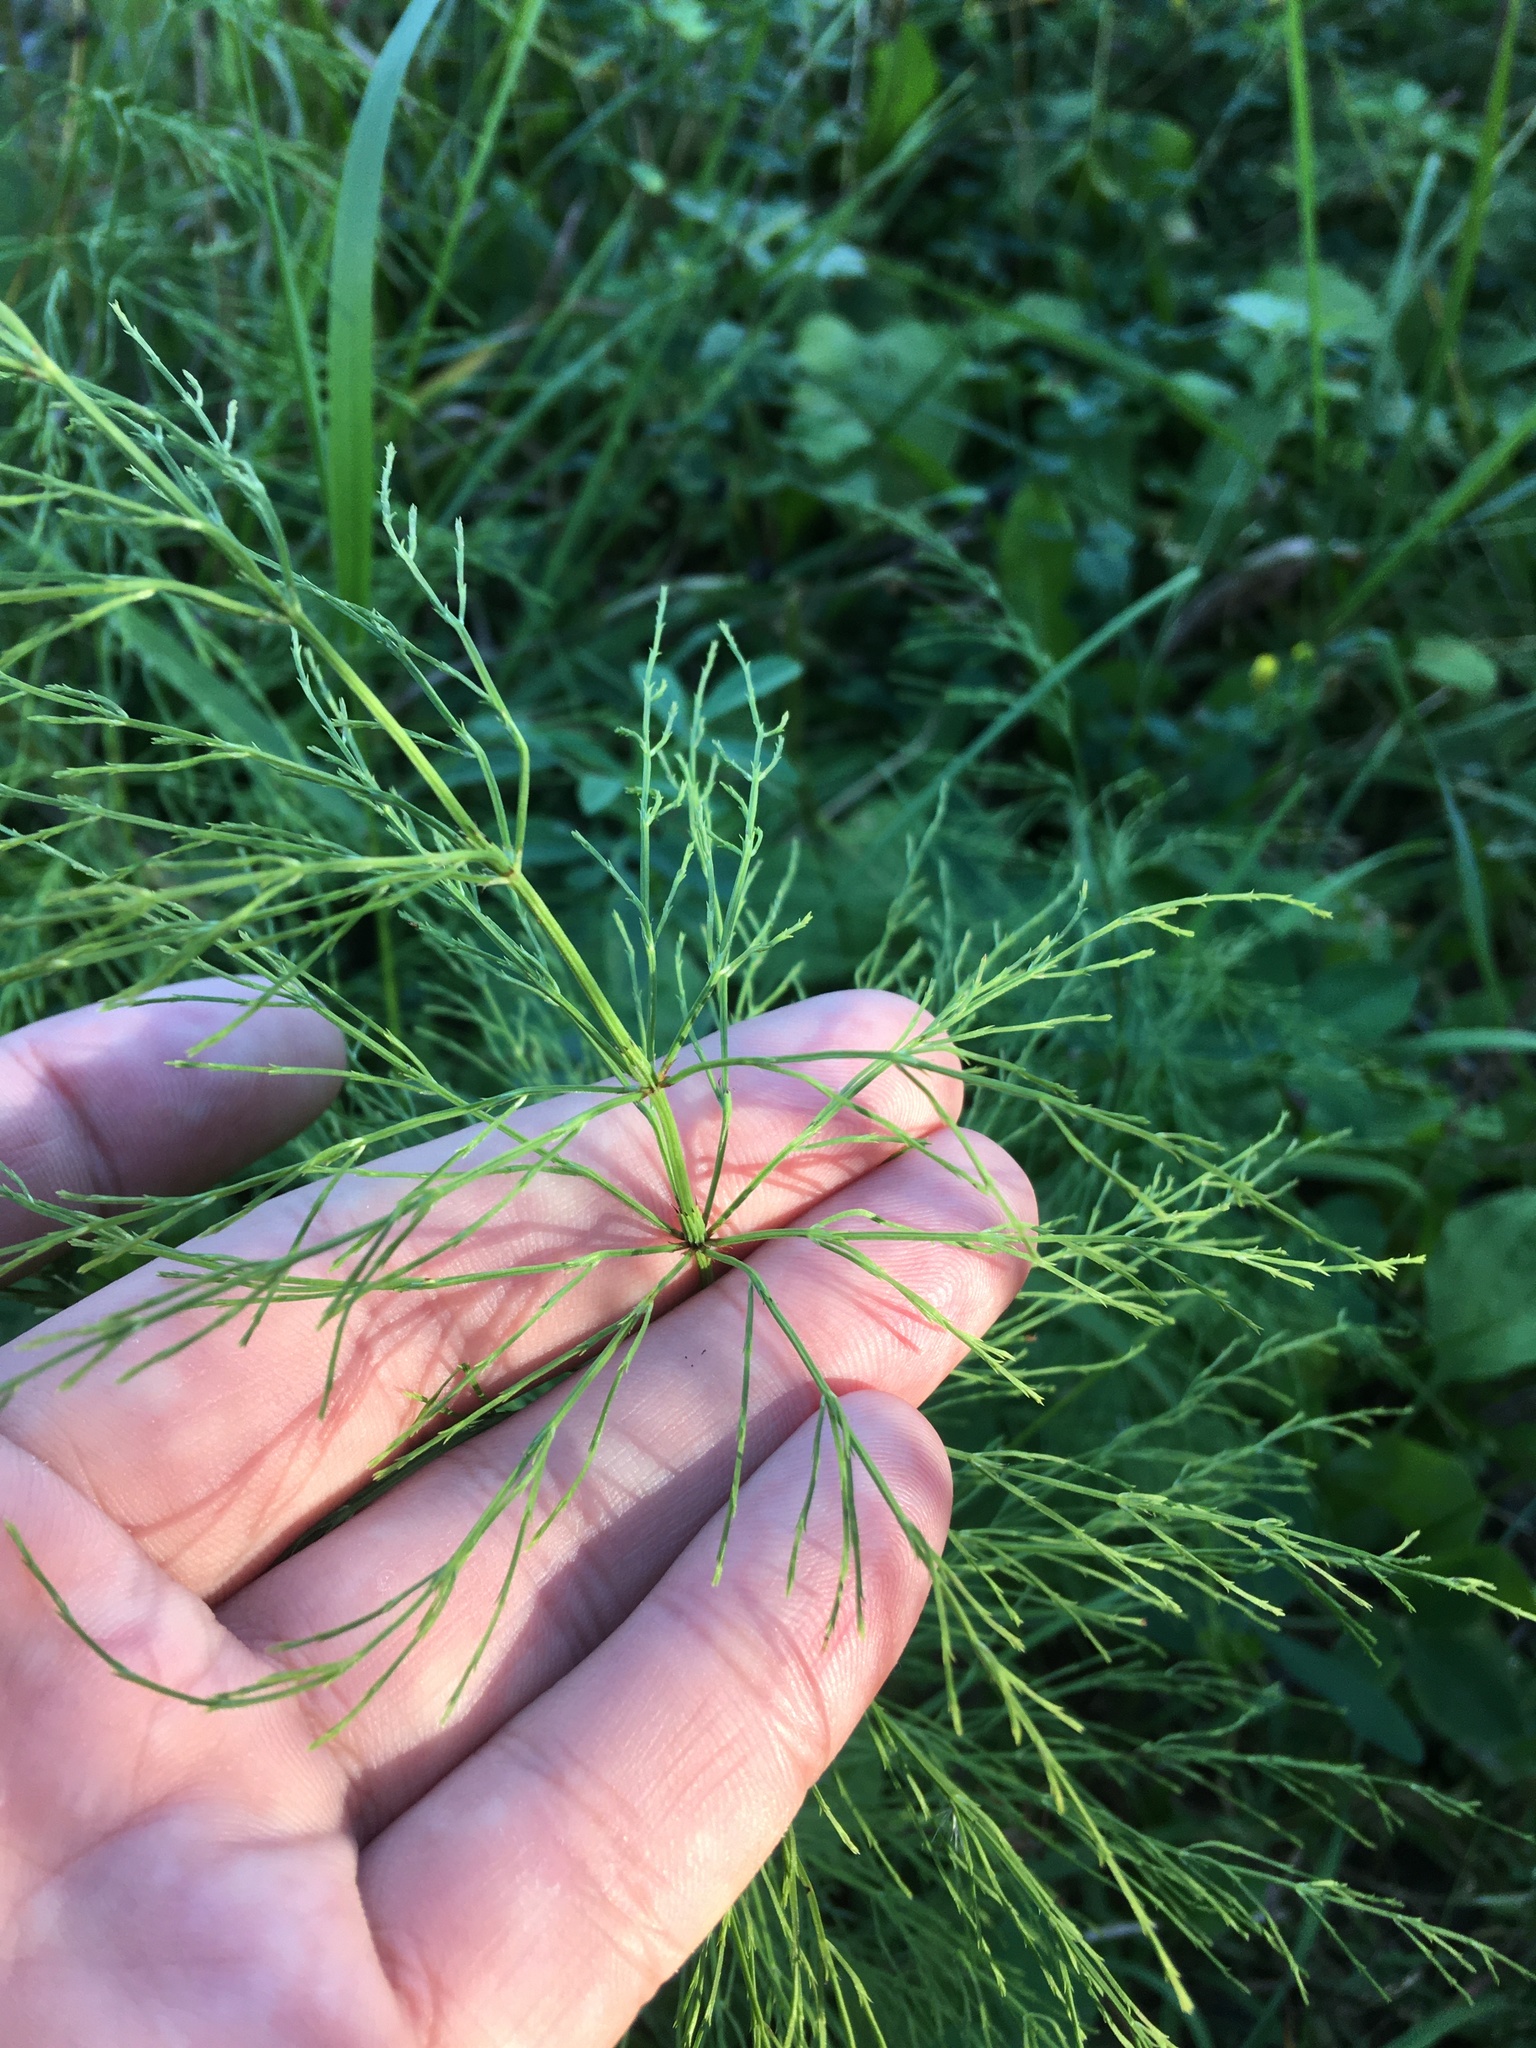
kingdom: Plantae
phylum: Tracheophyta
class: Polypodiopsida
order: Equisetales
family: Equisetaceae
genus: Equisetum
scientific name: Equisetum sylvaticum
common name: Wood horsetail
